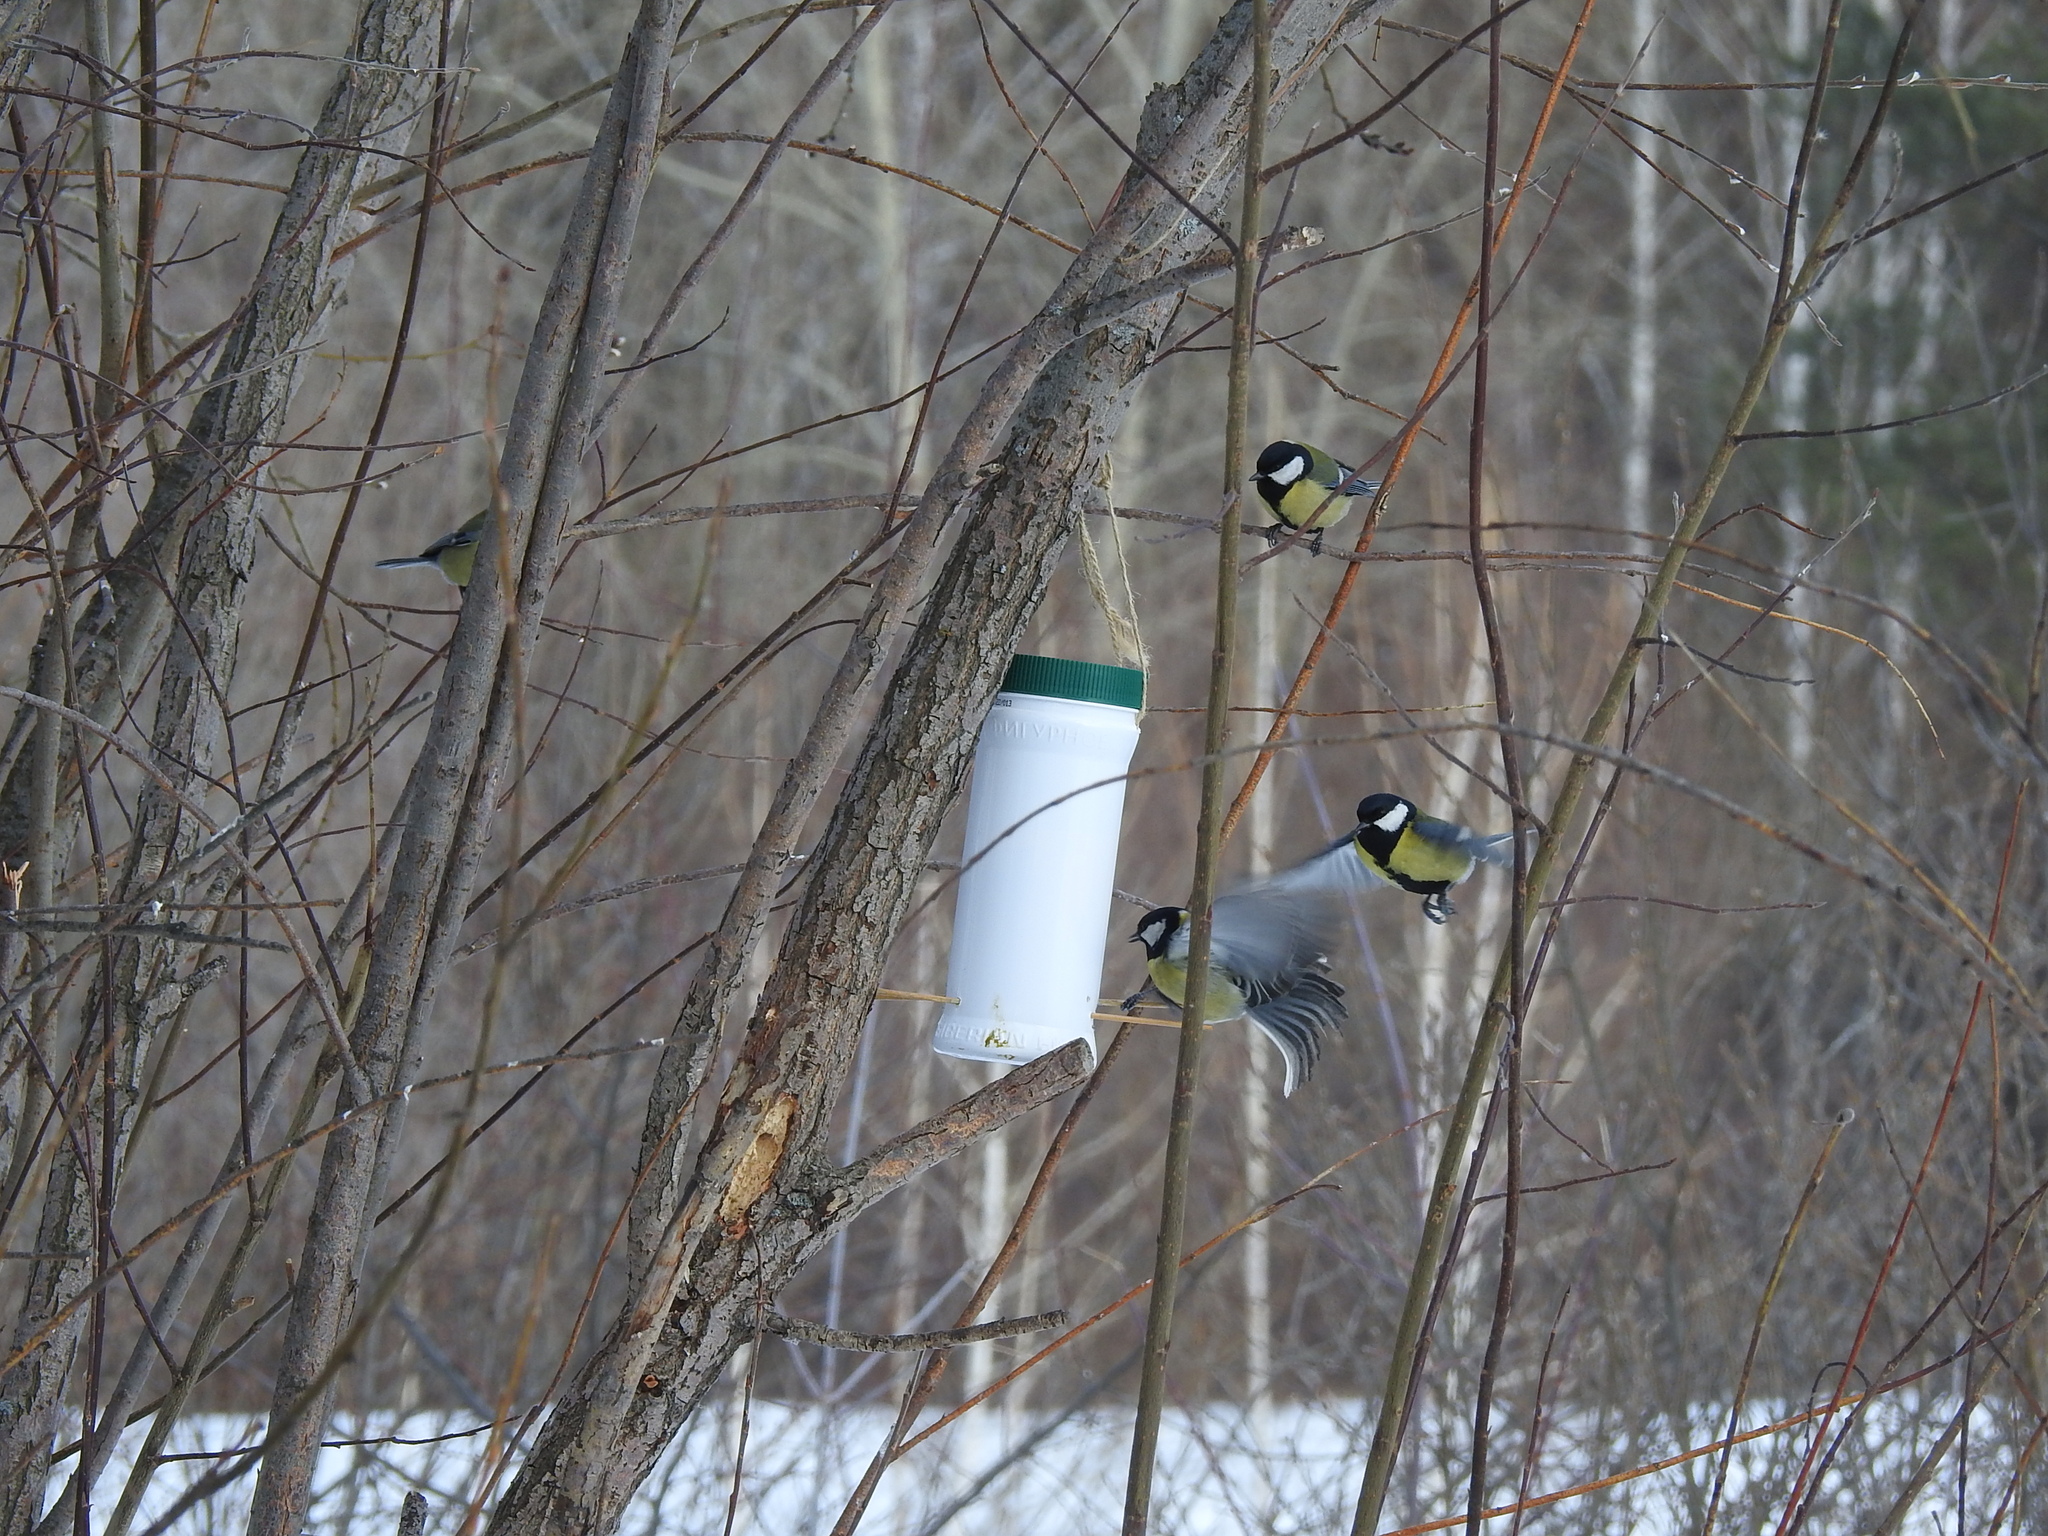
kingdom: Animalia
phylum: Chordata
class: Aves
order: Passeriformes
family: Paridae
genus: Parus
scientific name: Parus major
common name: Great tit
